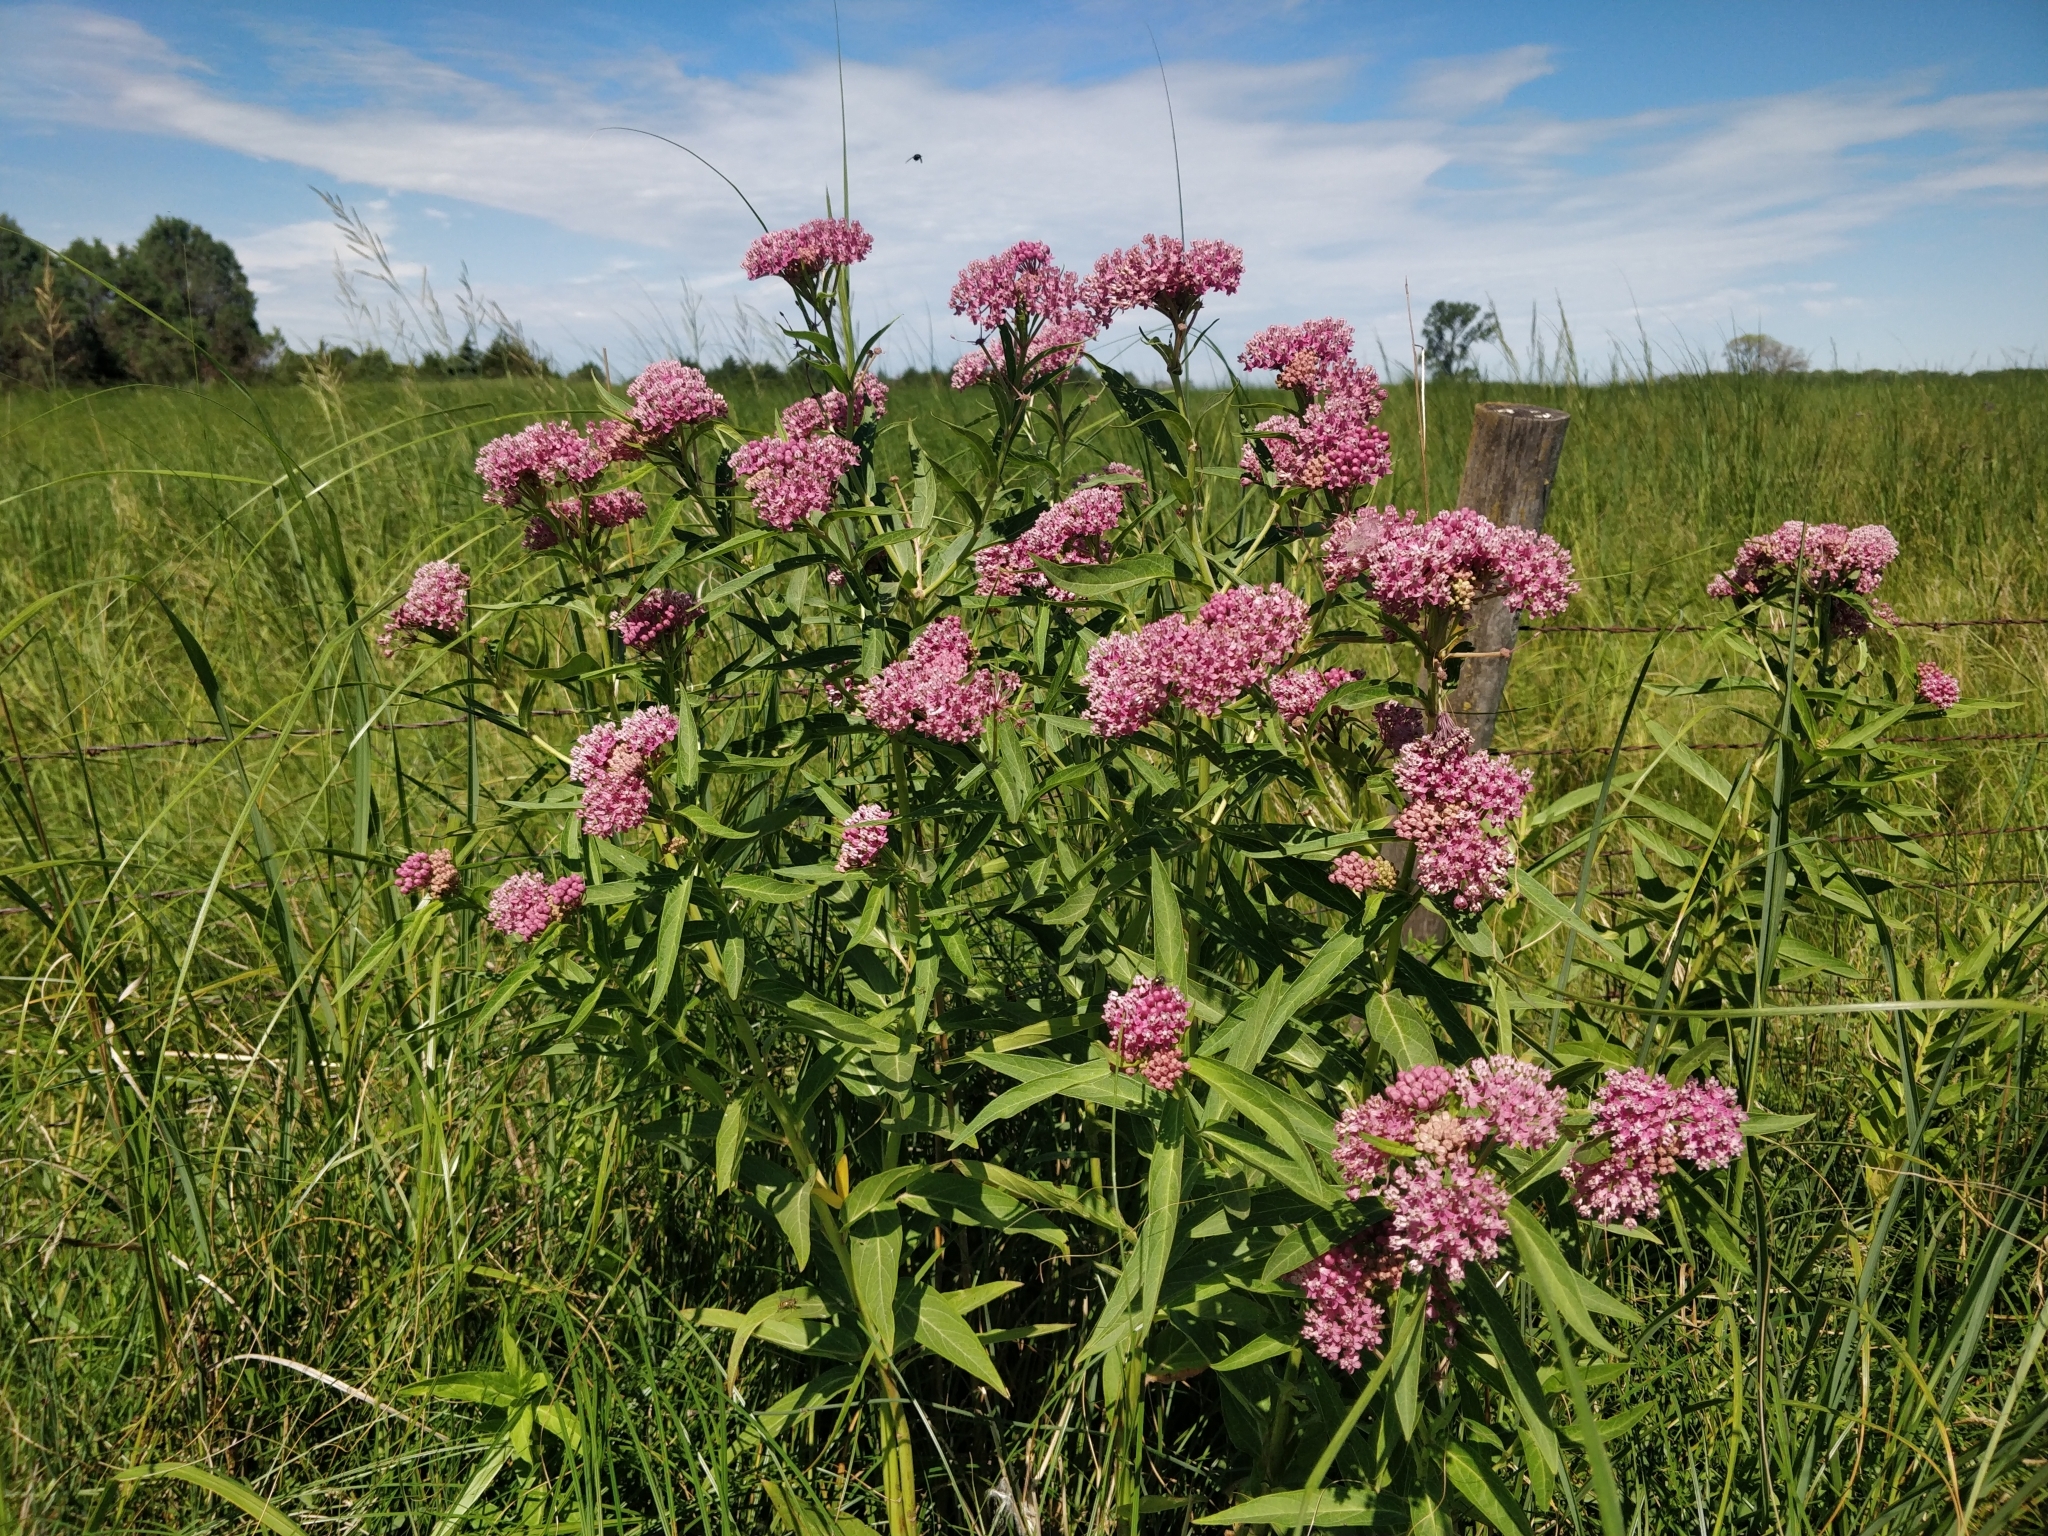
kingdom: Plantae
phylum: Tracheophyta
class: Magnoliopsida
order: Gentianales
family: Apocynaceae
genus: Asclepias
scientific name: Asclepias incarnata
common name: Swamp milkweed
